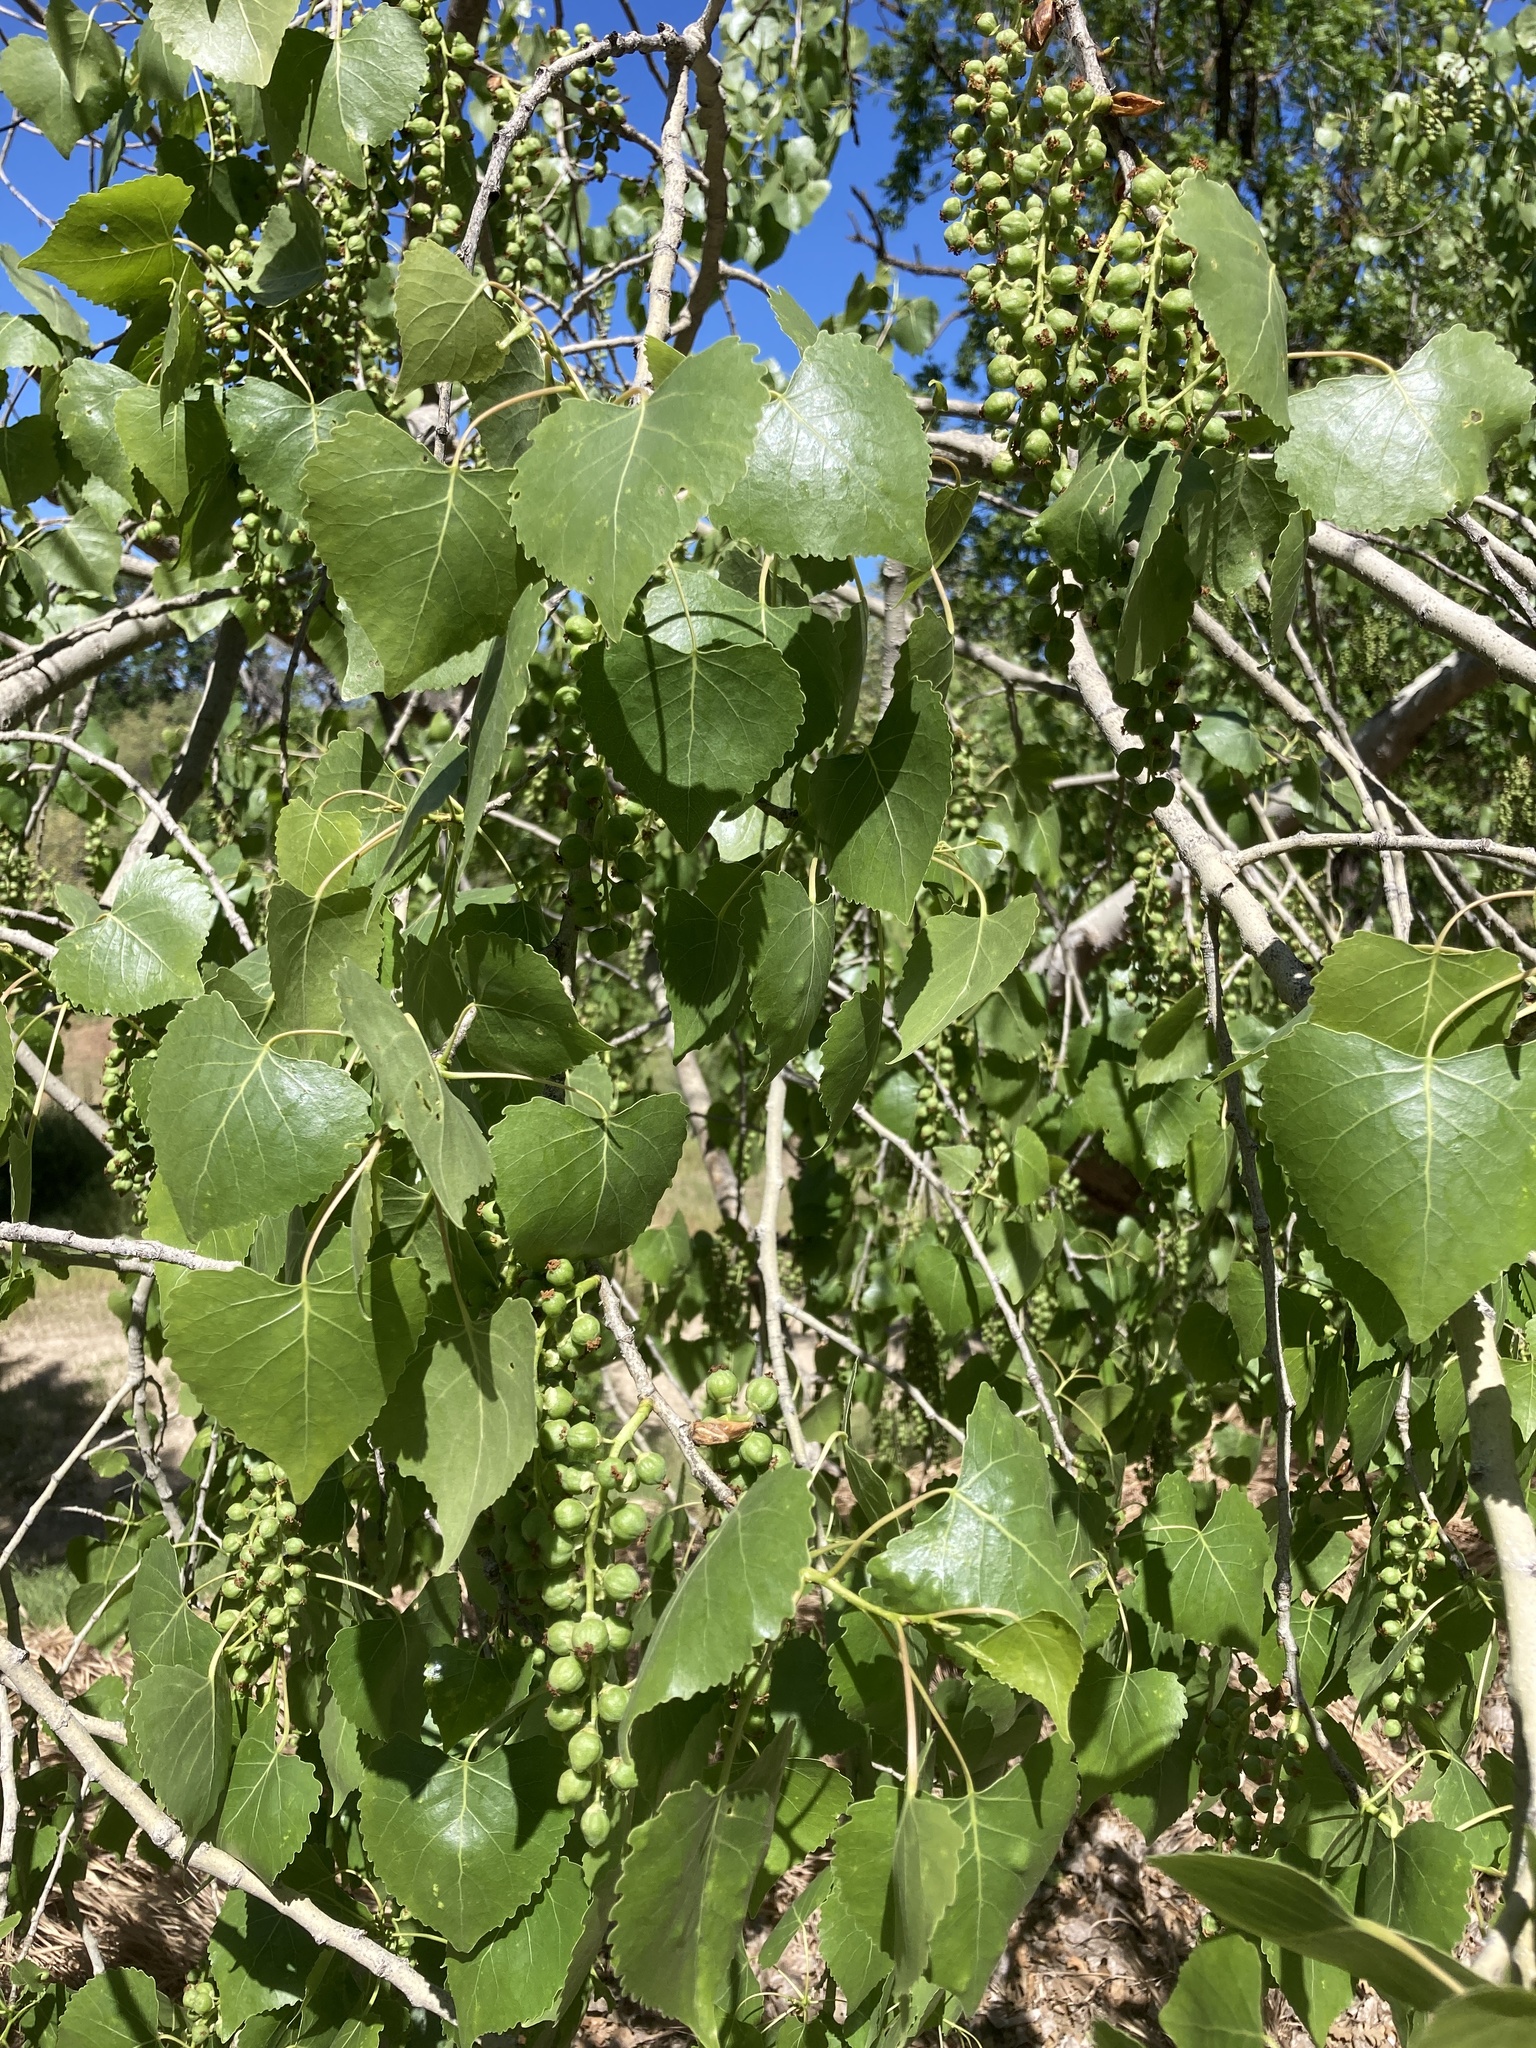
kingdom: Plantae
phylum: Tracheophyta
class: Magnoliopsida
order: Malpighiales
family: Salicaceae
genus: Populus
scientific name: Populus fremontii
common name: Fremont's cottonwood
